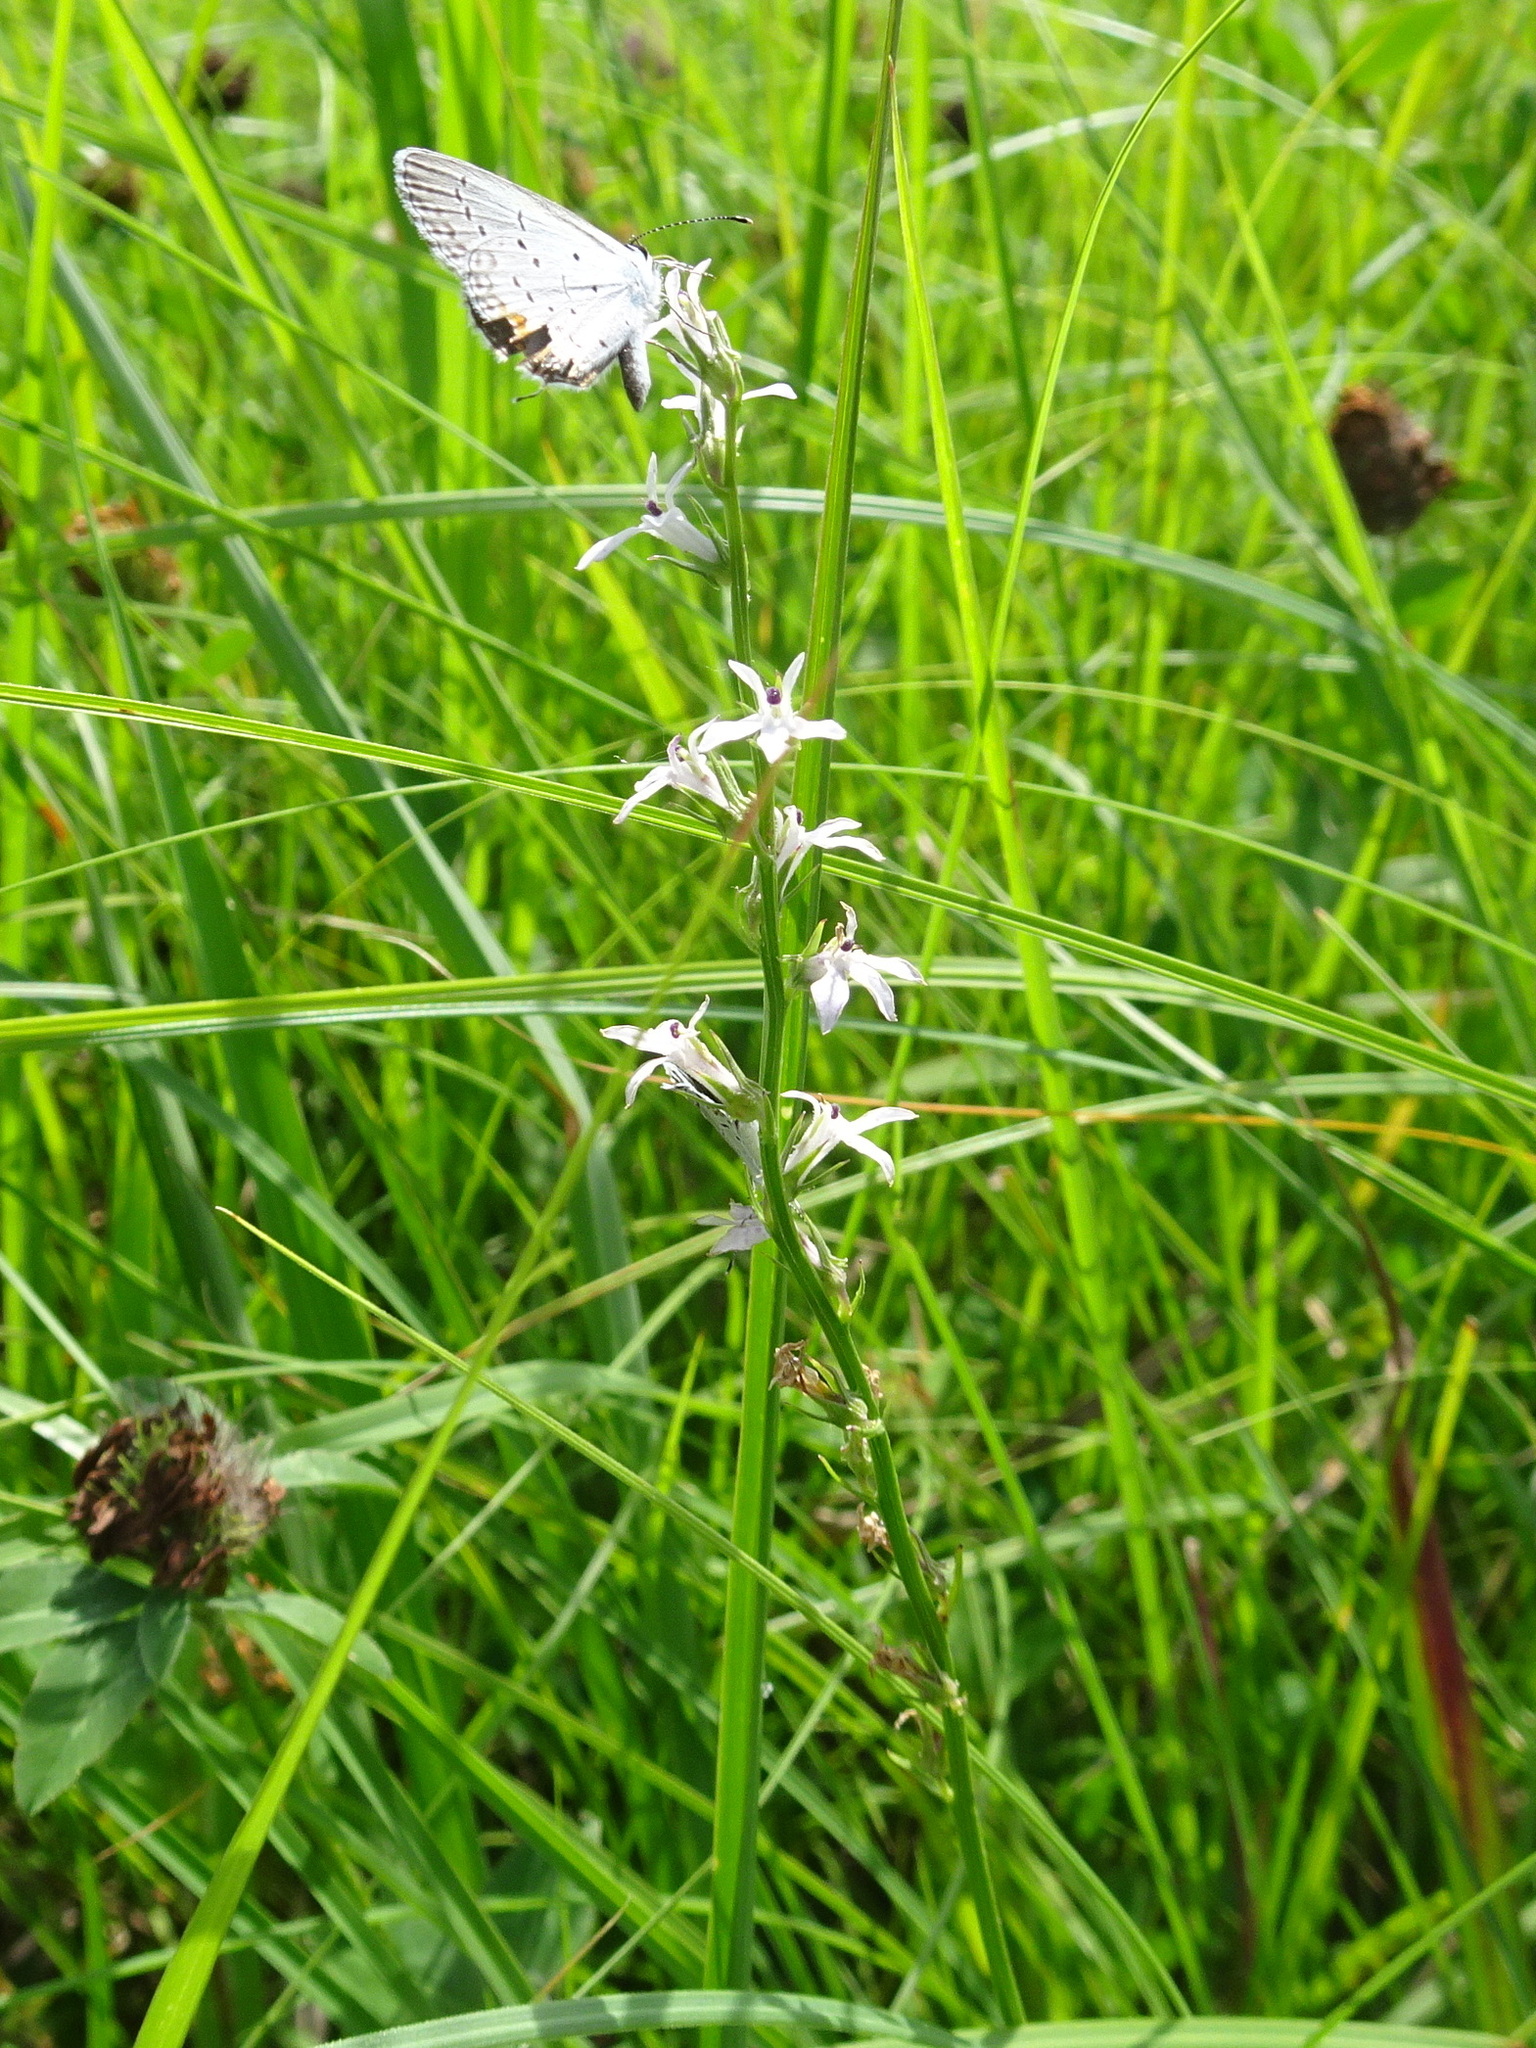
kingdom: Plantae
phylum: Tracheophyta
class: Magnoliopsida
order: Asterales
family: Campanulaceae
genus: Lobelia
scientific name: Lobelia spicata
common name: Pale-spike lobelia
